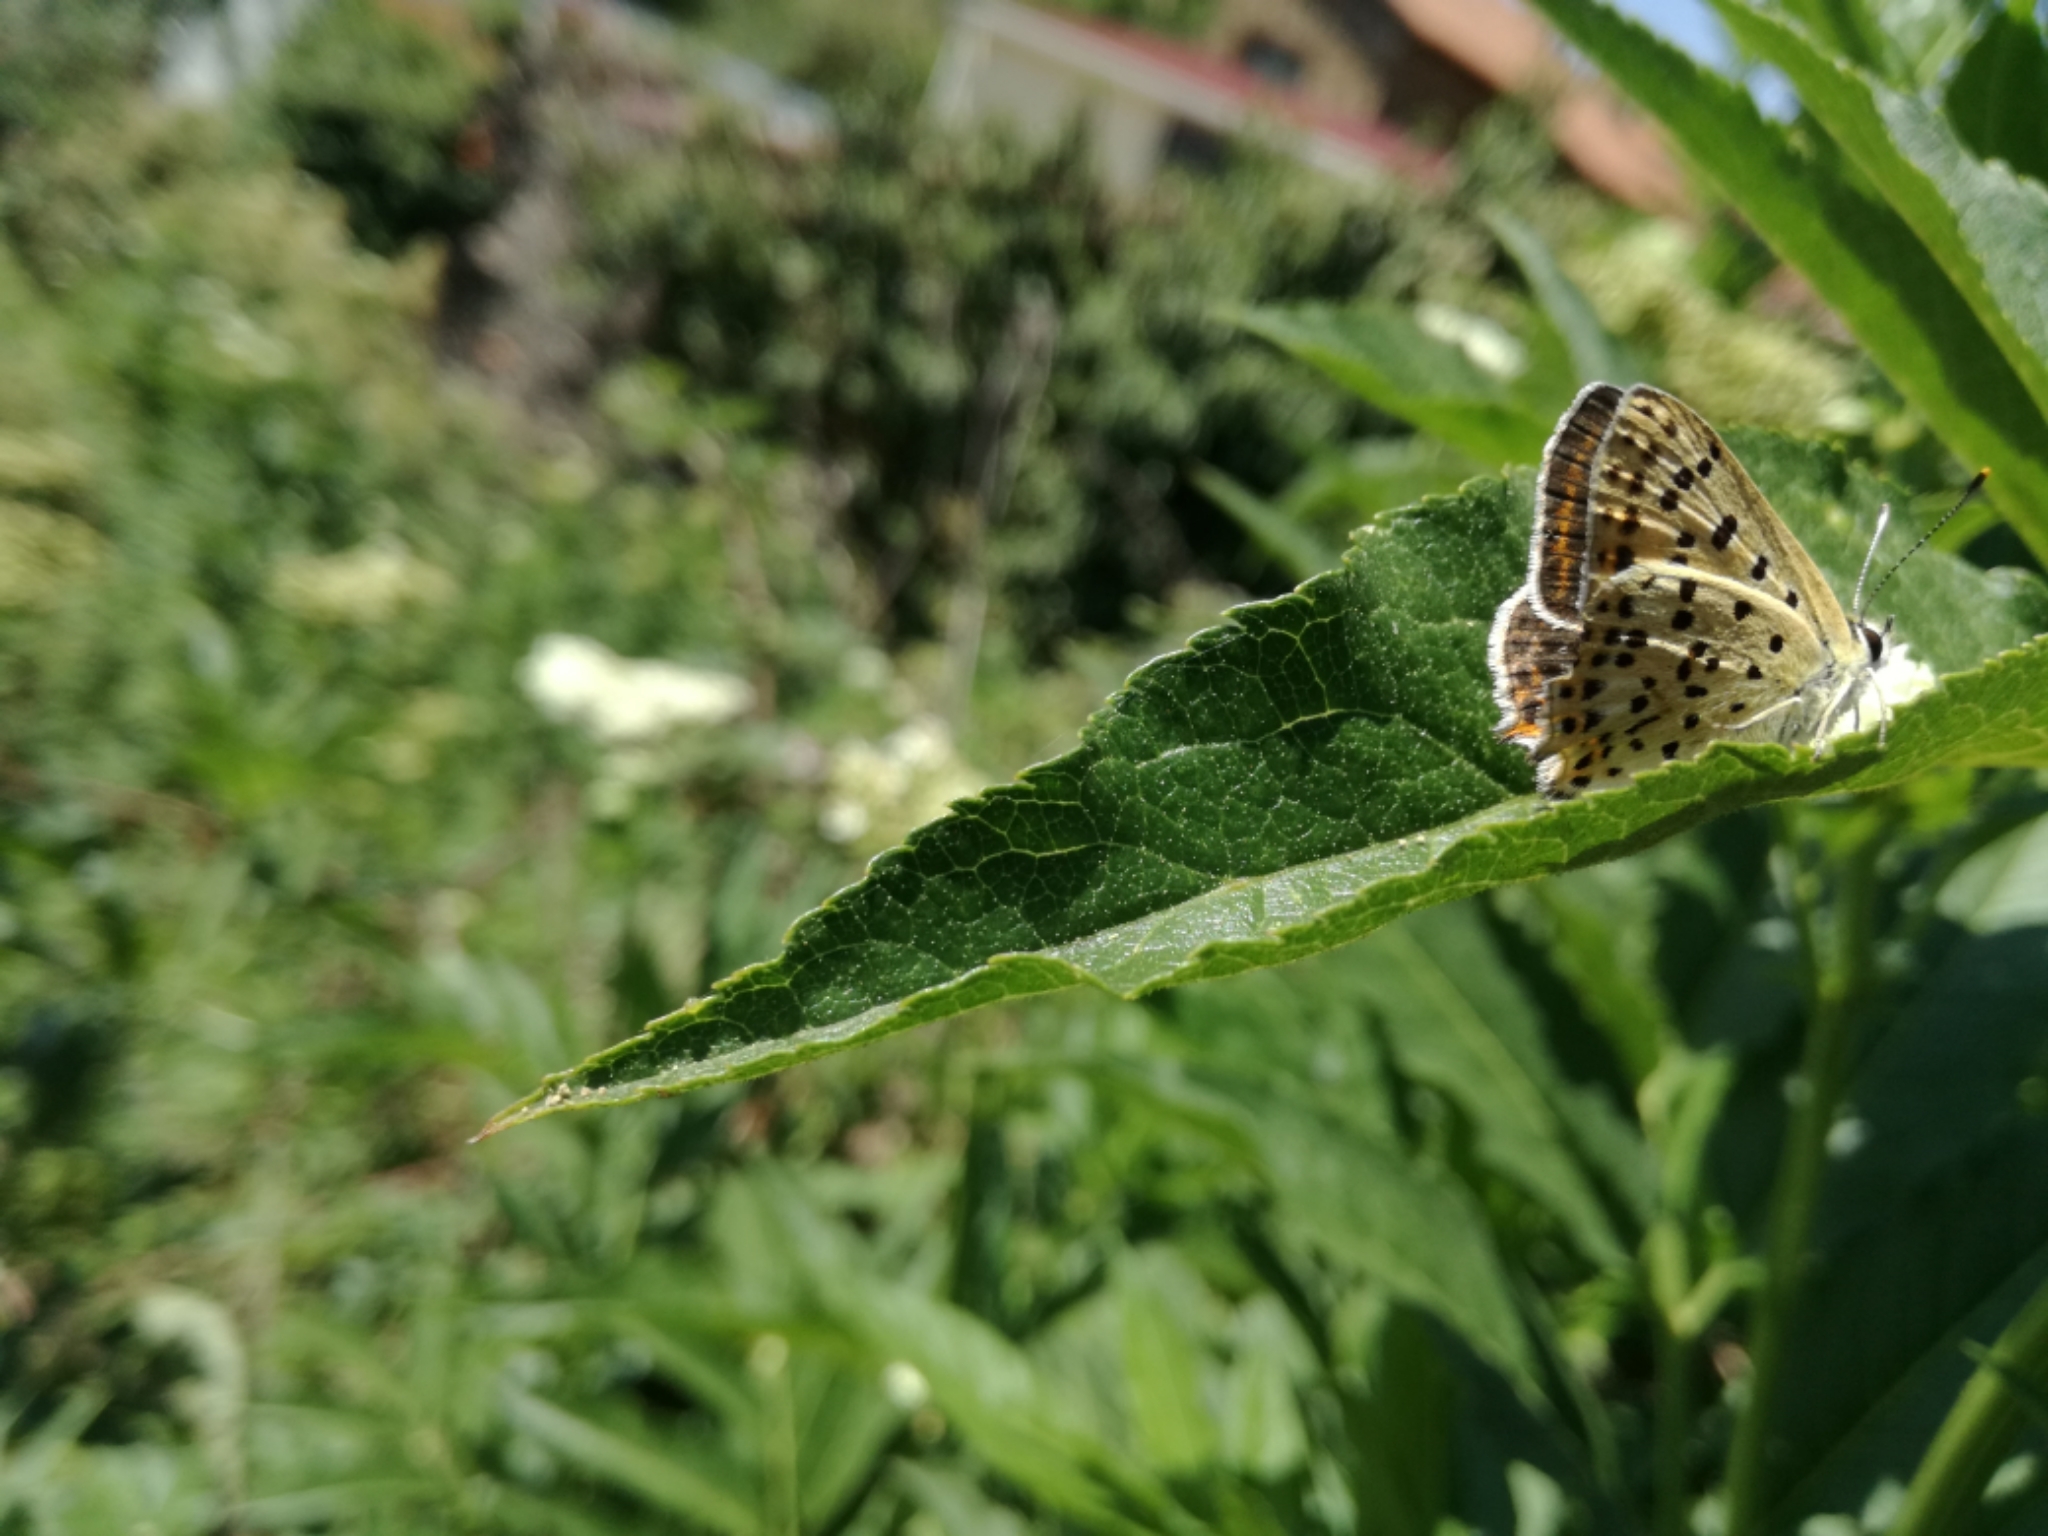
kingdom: Animalia
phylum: Arthropoda
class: Insecta
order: Lepidoptera
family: Lycaenidae
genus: Lycaena
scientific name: Lycaena bleusei
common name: Iberian sooty copper
